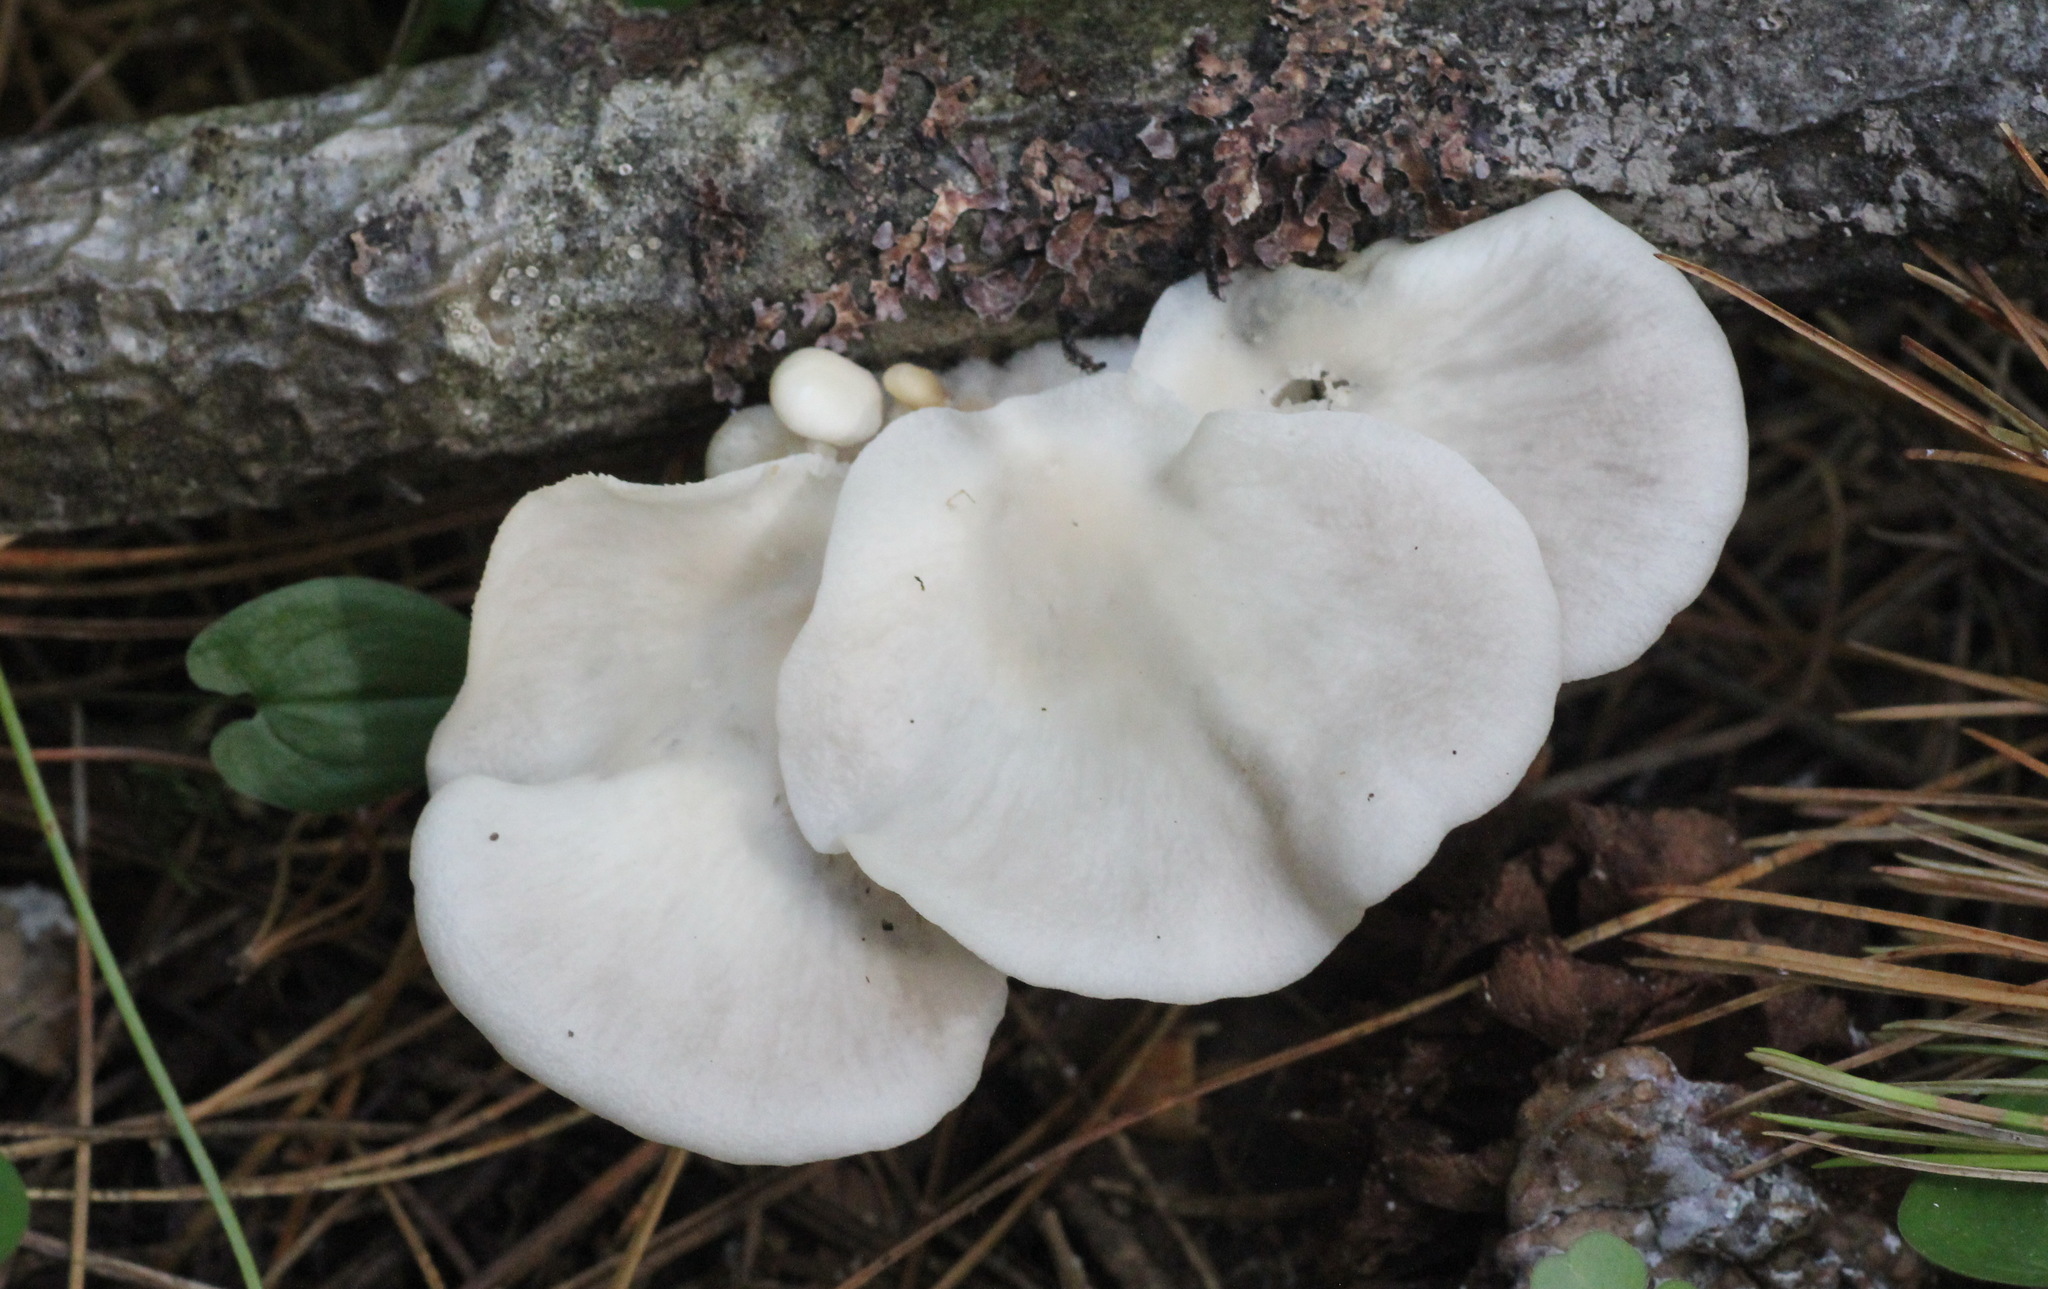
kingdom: Fungi
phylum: Basidiomycota
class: Agaricomycetes
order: Agaricales
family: Pleurotaceae
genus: Pleurotus
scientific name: Pleurotus pulmonarius
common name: Pale oyster
